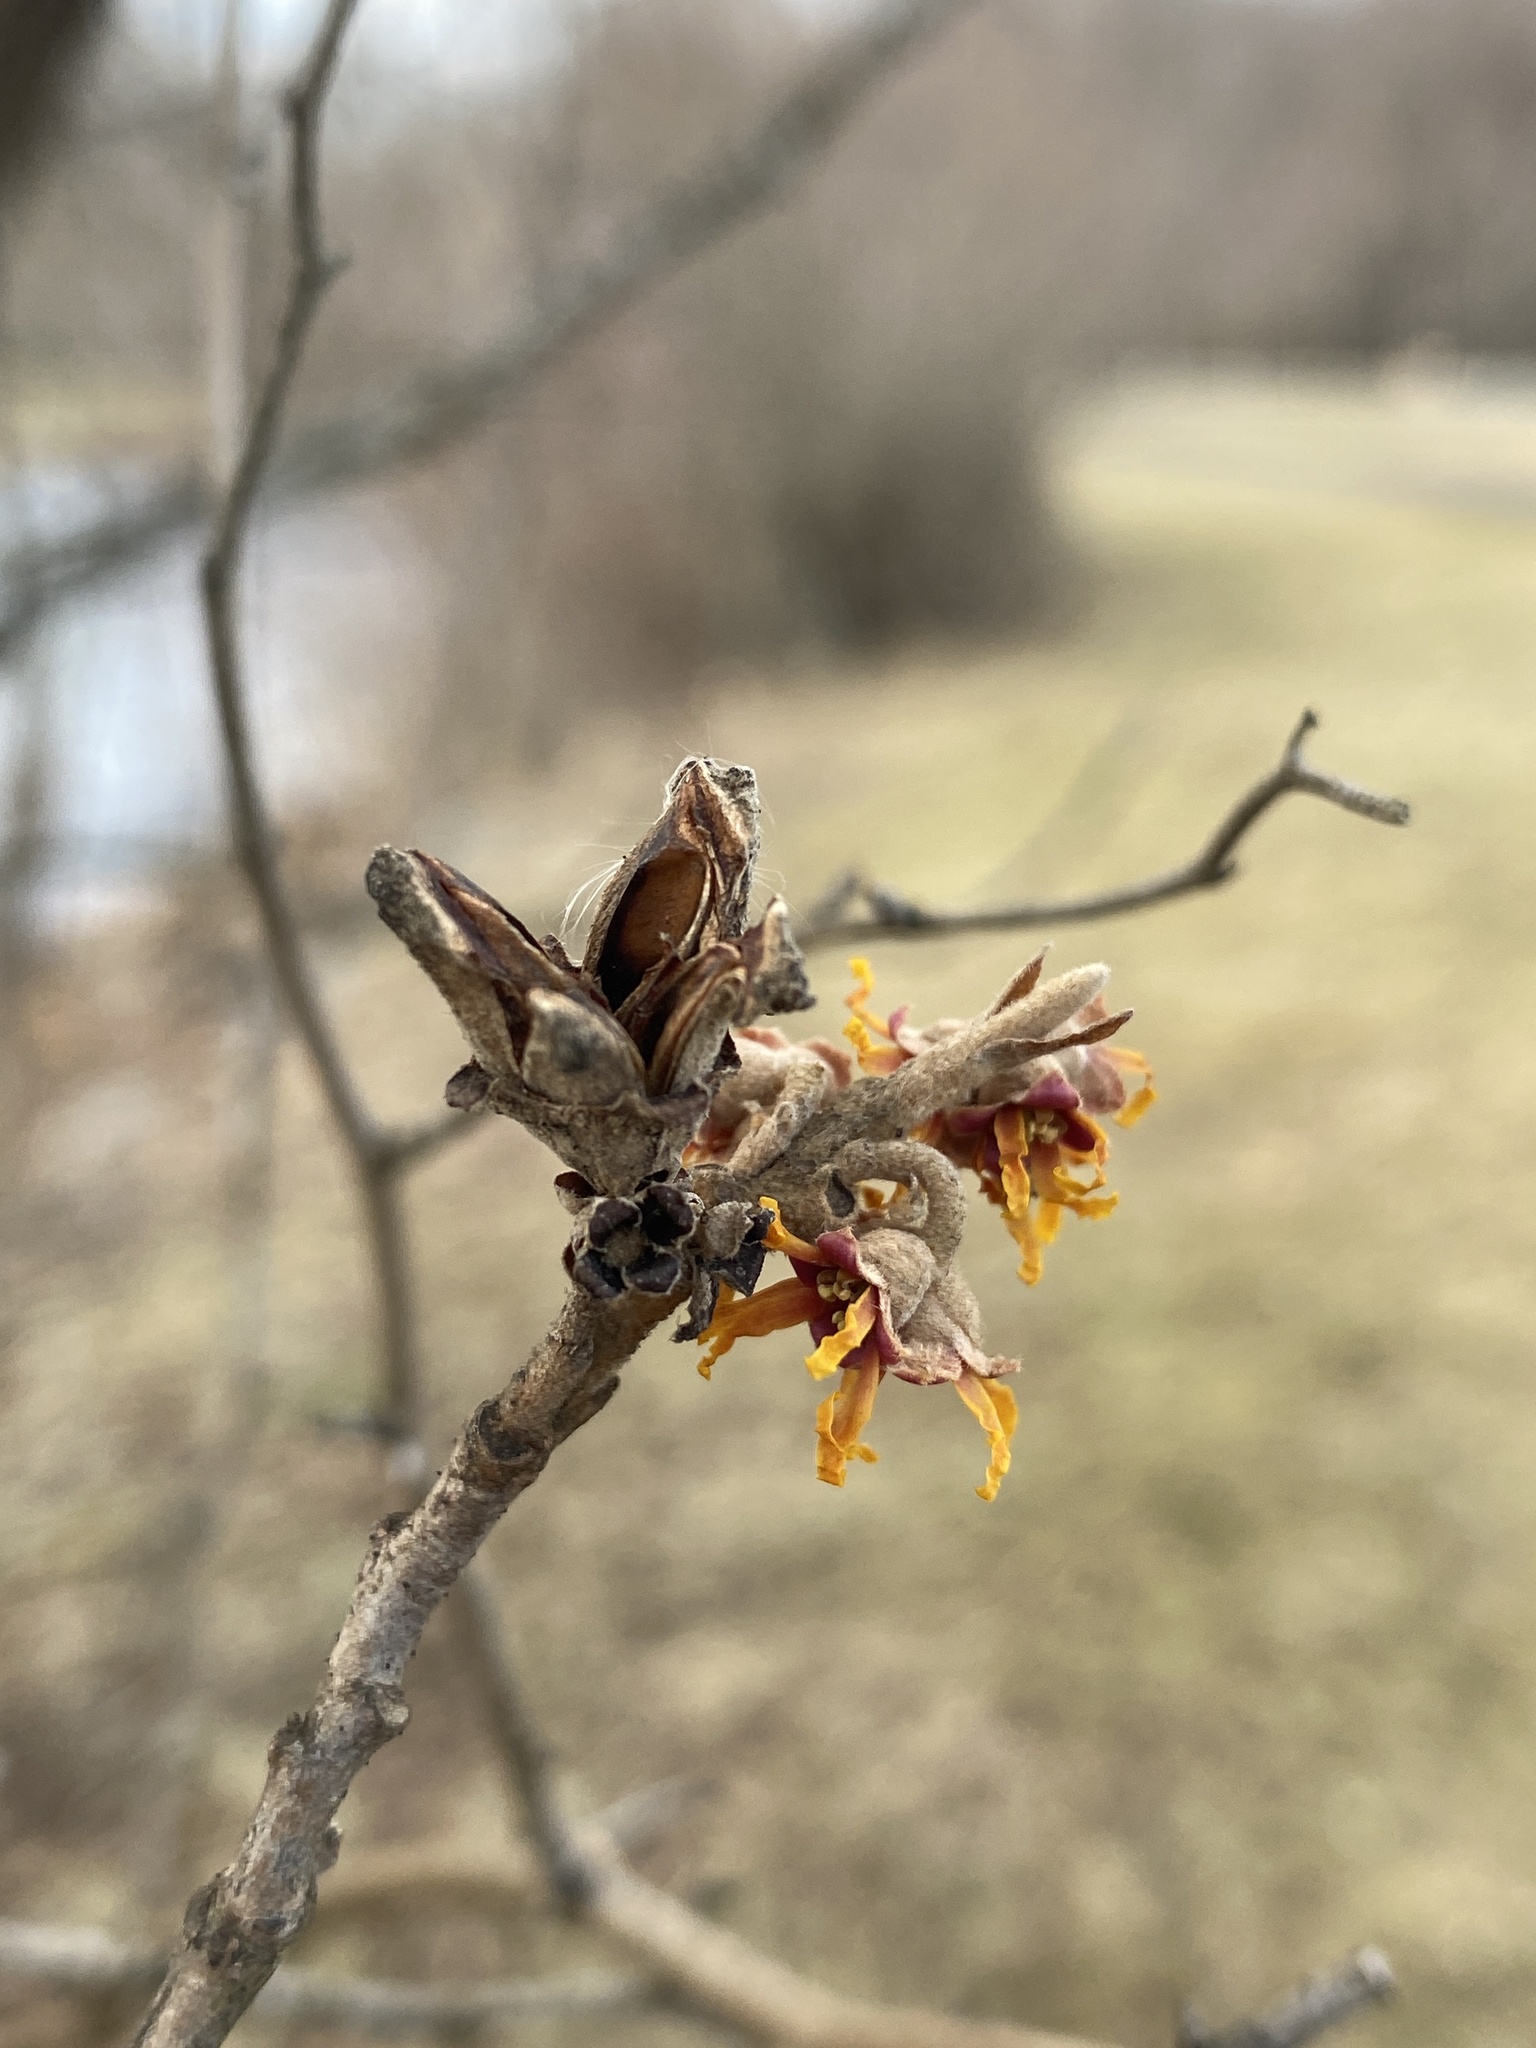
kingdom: Plantae
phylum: Tracheophyta
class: Magnoliopsida
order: Saxifragales
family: Hamamelidaceae
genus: Hamamelis
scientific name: Hamamelis vernalis
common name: Ozark witch-hazel
